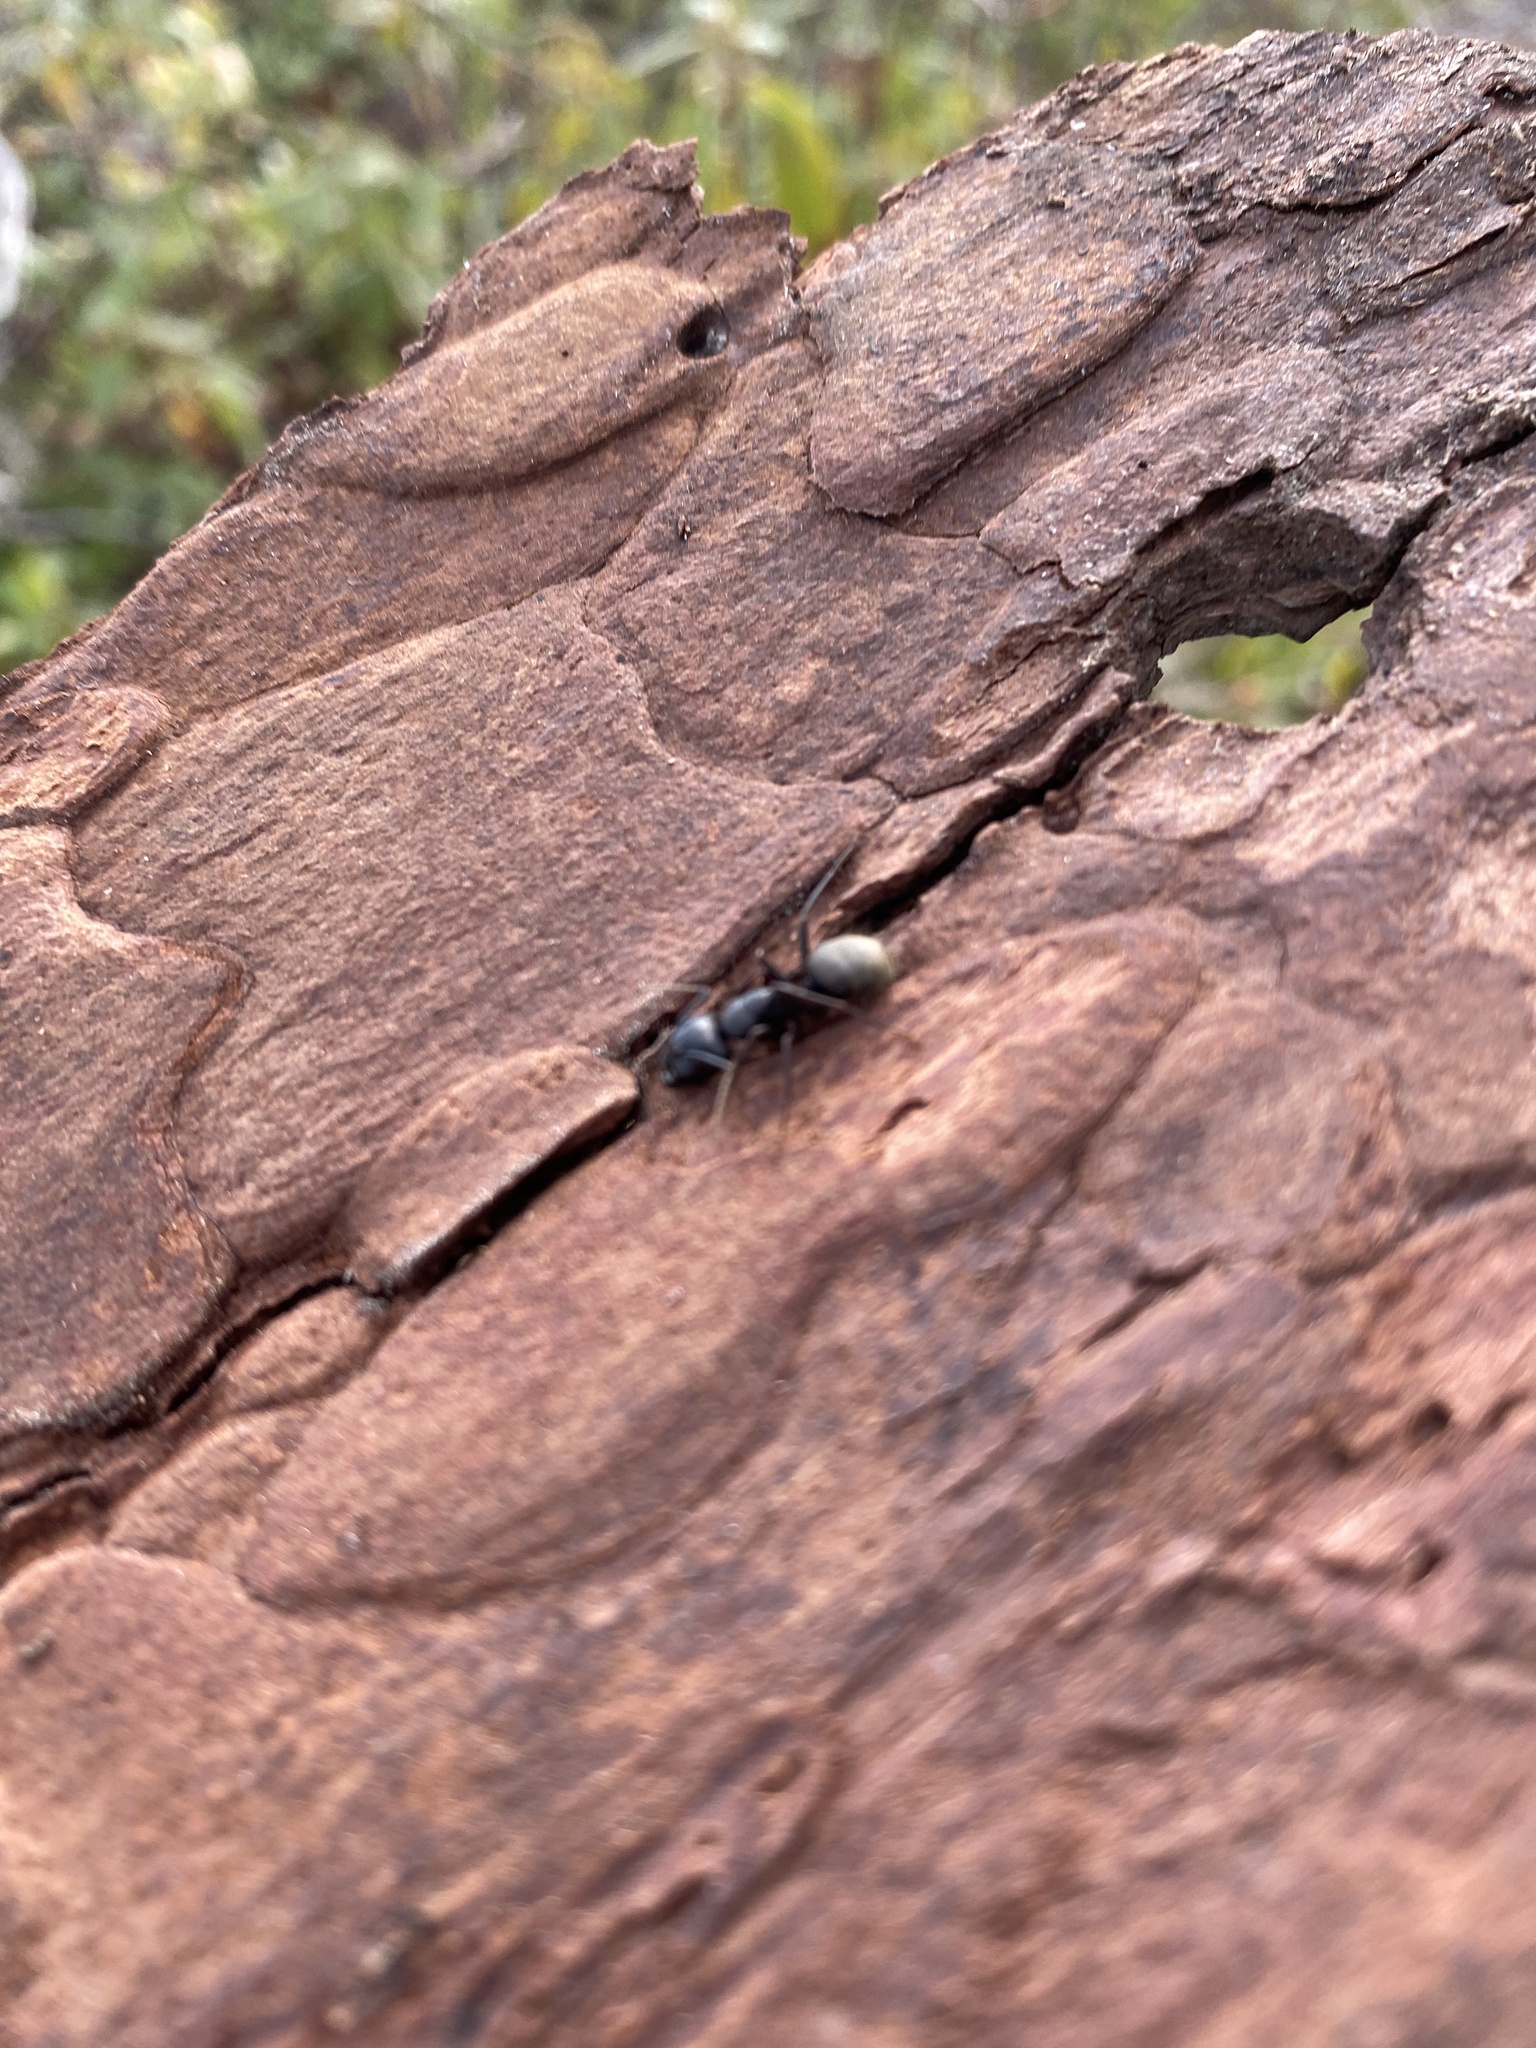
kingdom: Animalia
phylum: Arthropoda
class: Insecta
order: Hymenoptera
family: Formicidae
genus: Camponotus
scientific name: Camponotus pennsylvanicus
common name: Black carpenter ant
